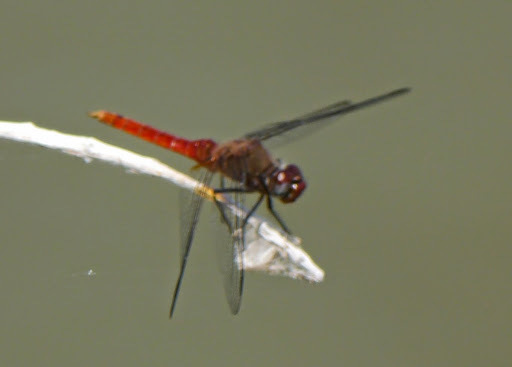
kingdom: Animalia
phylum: Arthropoda
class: Insecta
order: Odonata
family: Libellulidae
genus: Brachymesia
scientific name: Brachymesia furcata
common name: Red-taled pennant
